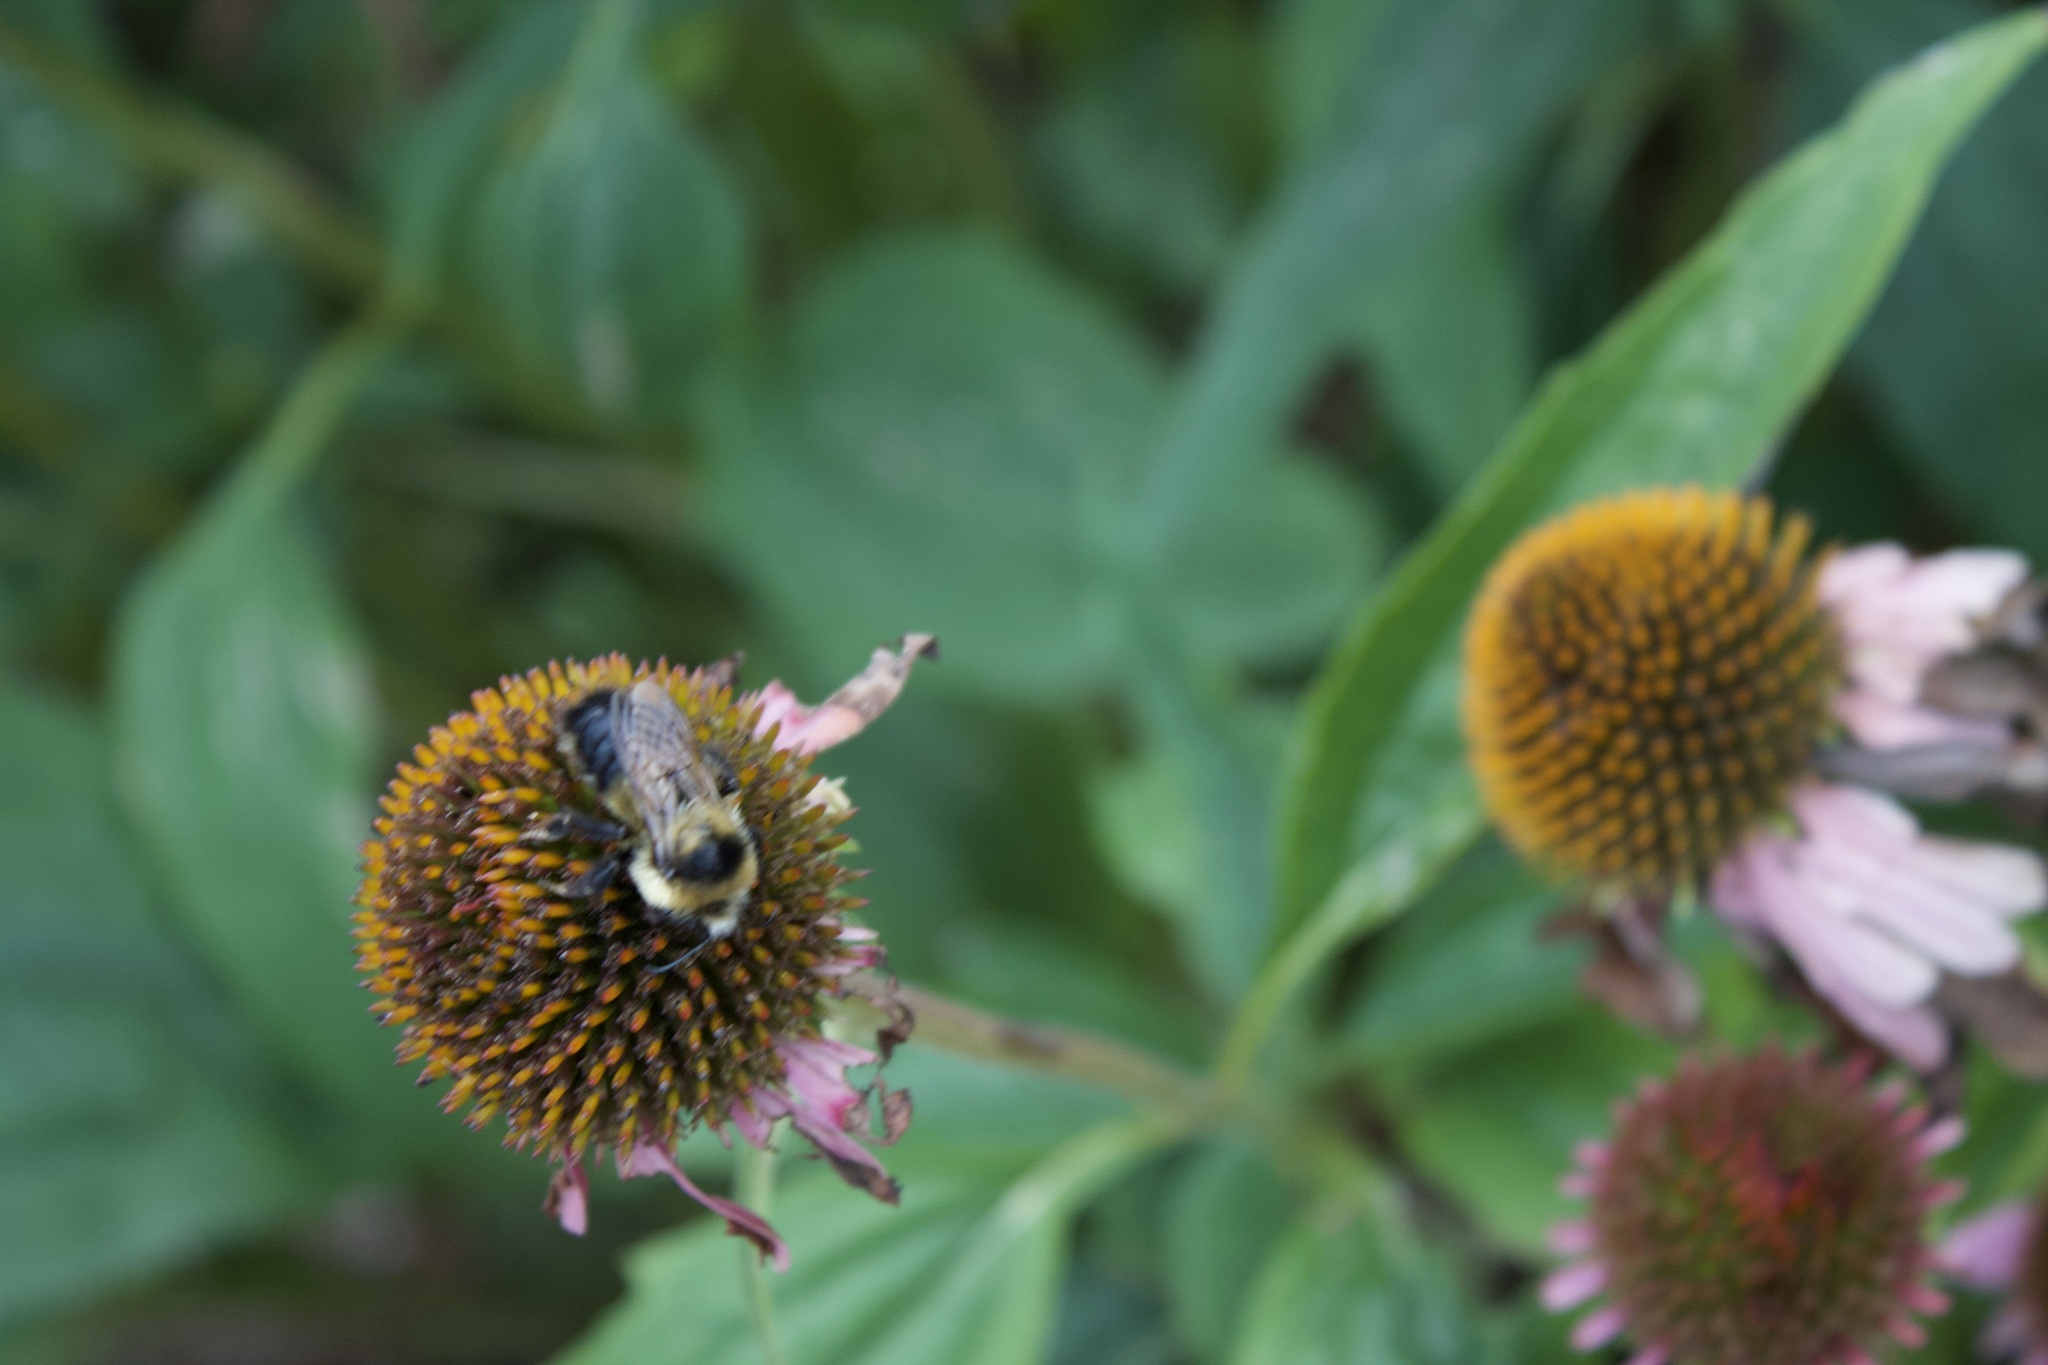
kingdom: Animalia
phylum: Arthropoda
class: Insecta
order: Hymenoptera
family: Apidae
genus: Bombus
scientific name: Bombus rufocinctus
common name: Red-belted bumble bee
